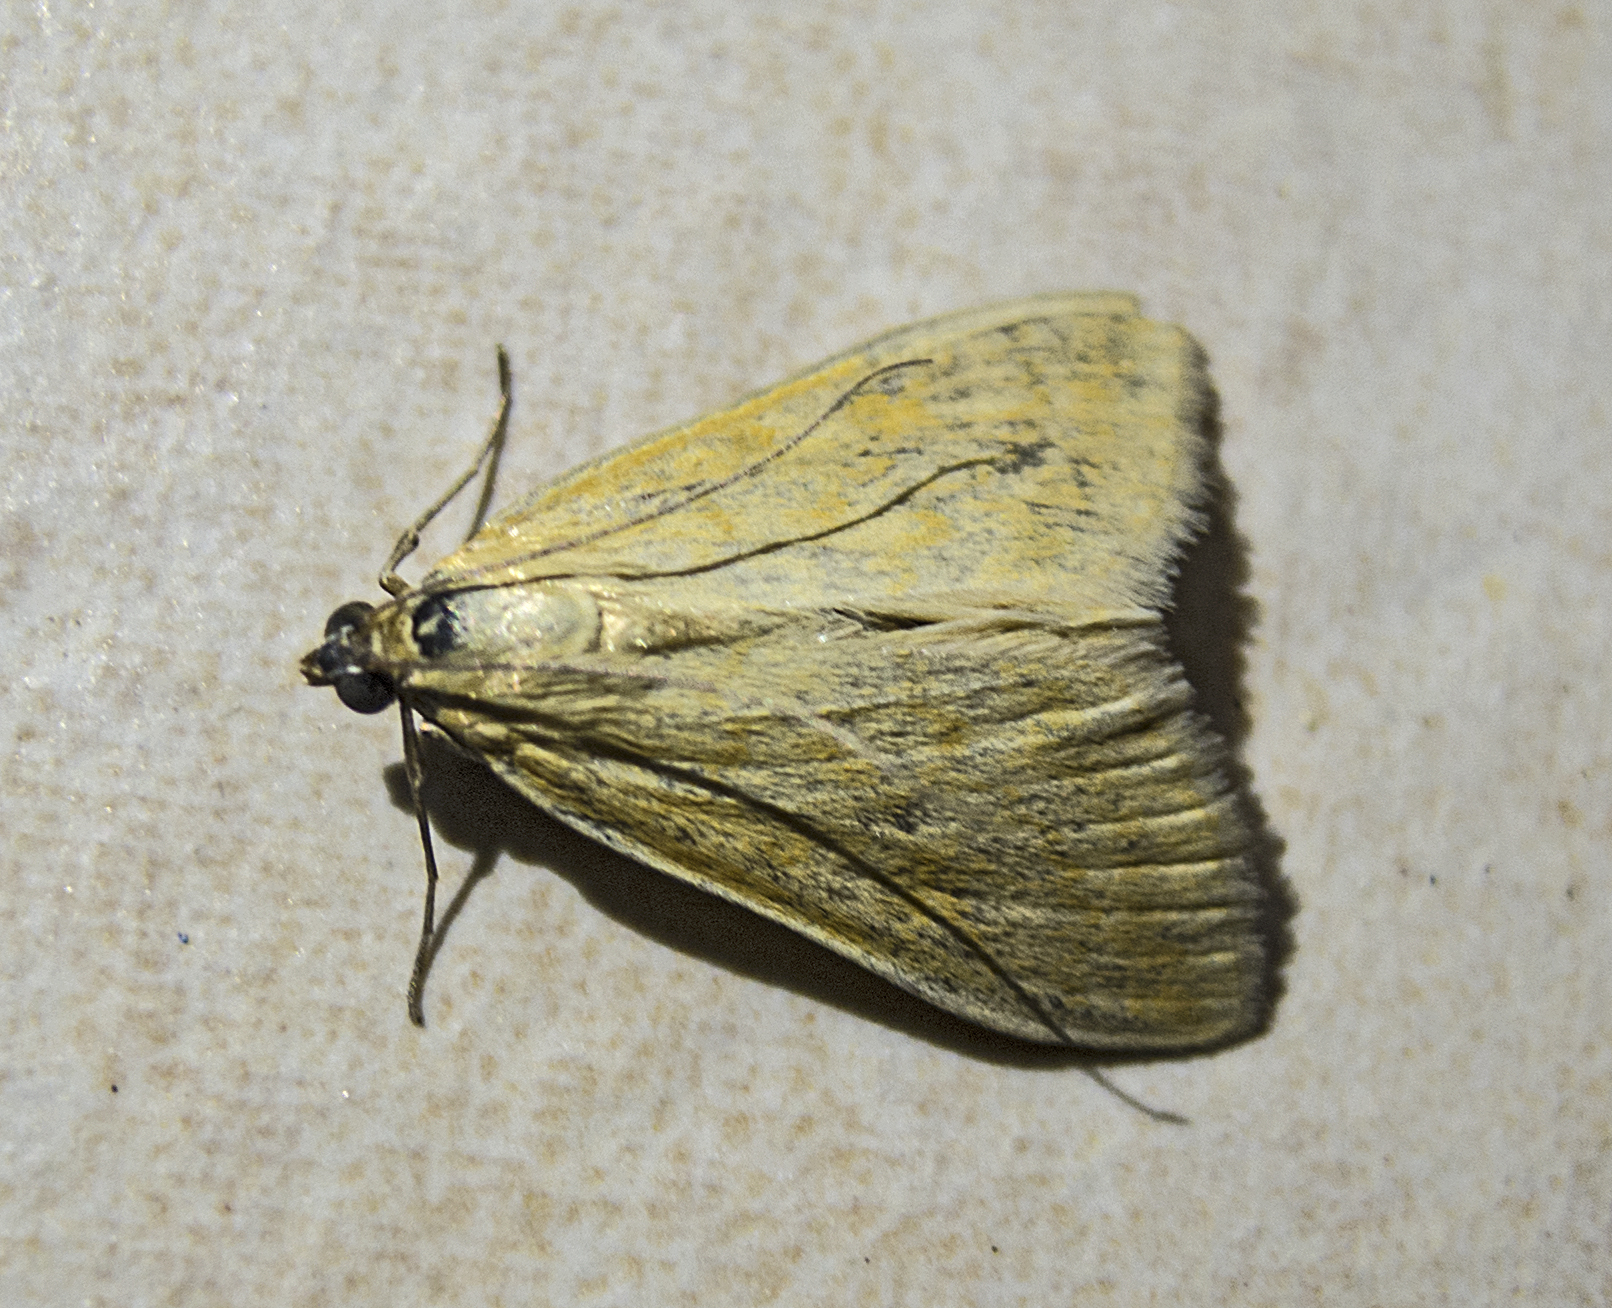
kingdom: Animalia
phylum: Arthropoda
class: Insecta
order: Lepidoptera
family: Crambidae
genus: Sitochroa
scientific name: Sitochroa verticalis
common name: Lesser pearl
